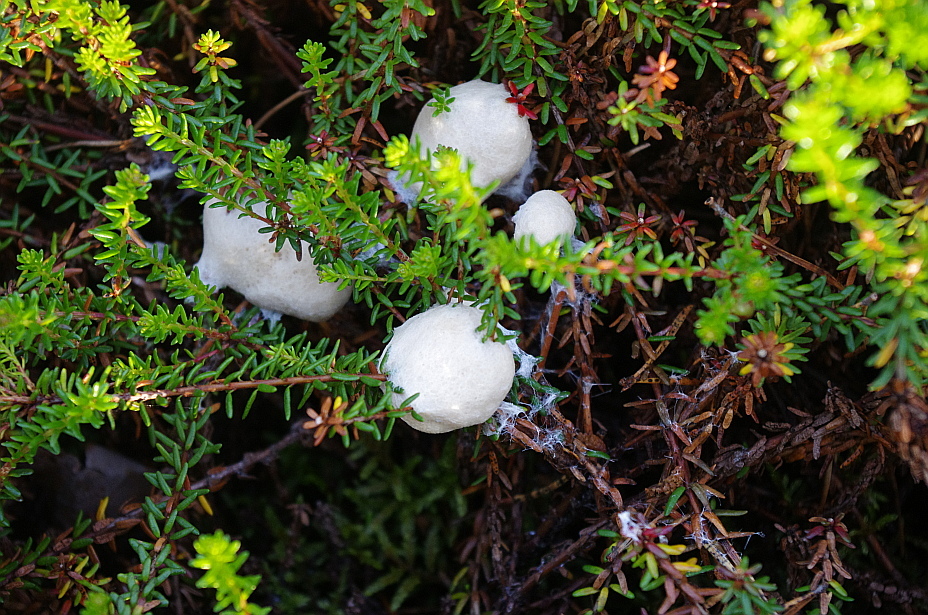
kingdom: Plantae
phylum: Tracheophyta
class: Magnoliopsida
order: Ericales
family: Ericaceae
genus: Empetrum
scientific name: Empetrum nigrum
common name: Black crowberry
